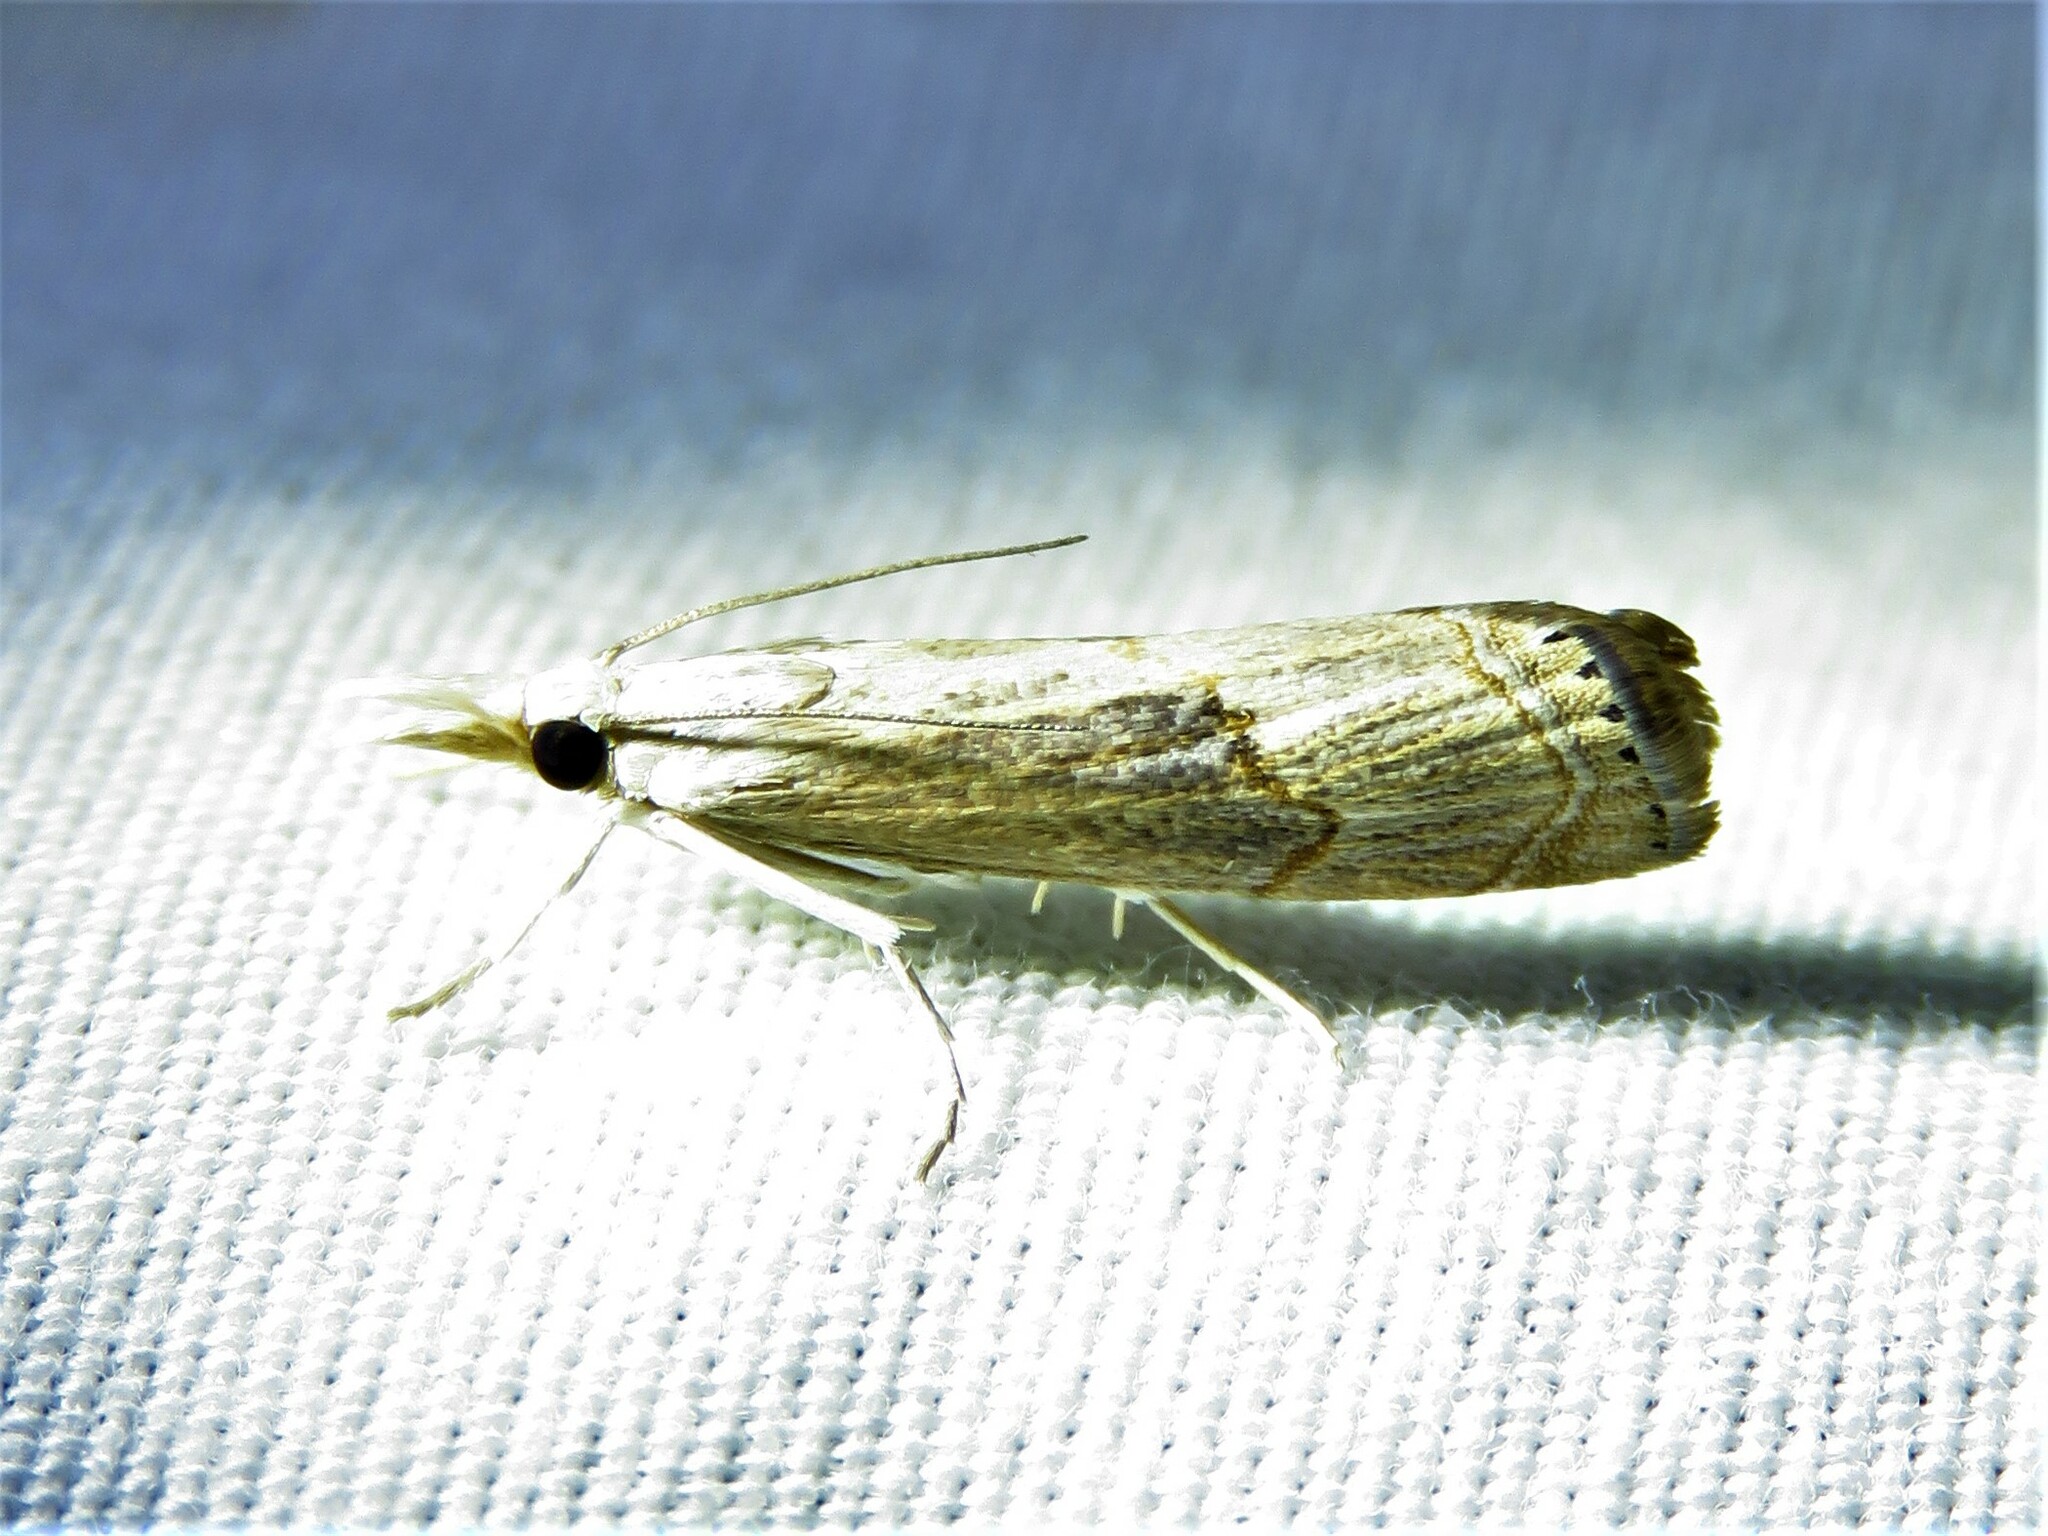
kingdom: Animalia
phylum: Arthropoda
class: Insecta
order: Lepidoptera
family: Crambidae
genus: Parapediasia
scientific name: Parapediasia teterellus
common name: Bluegrass webworm moth
